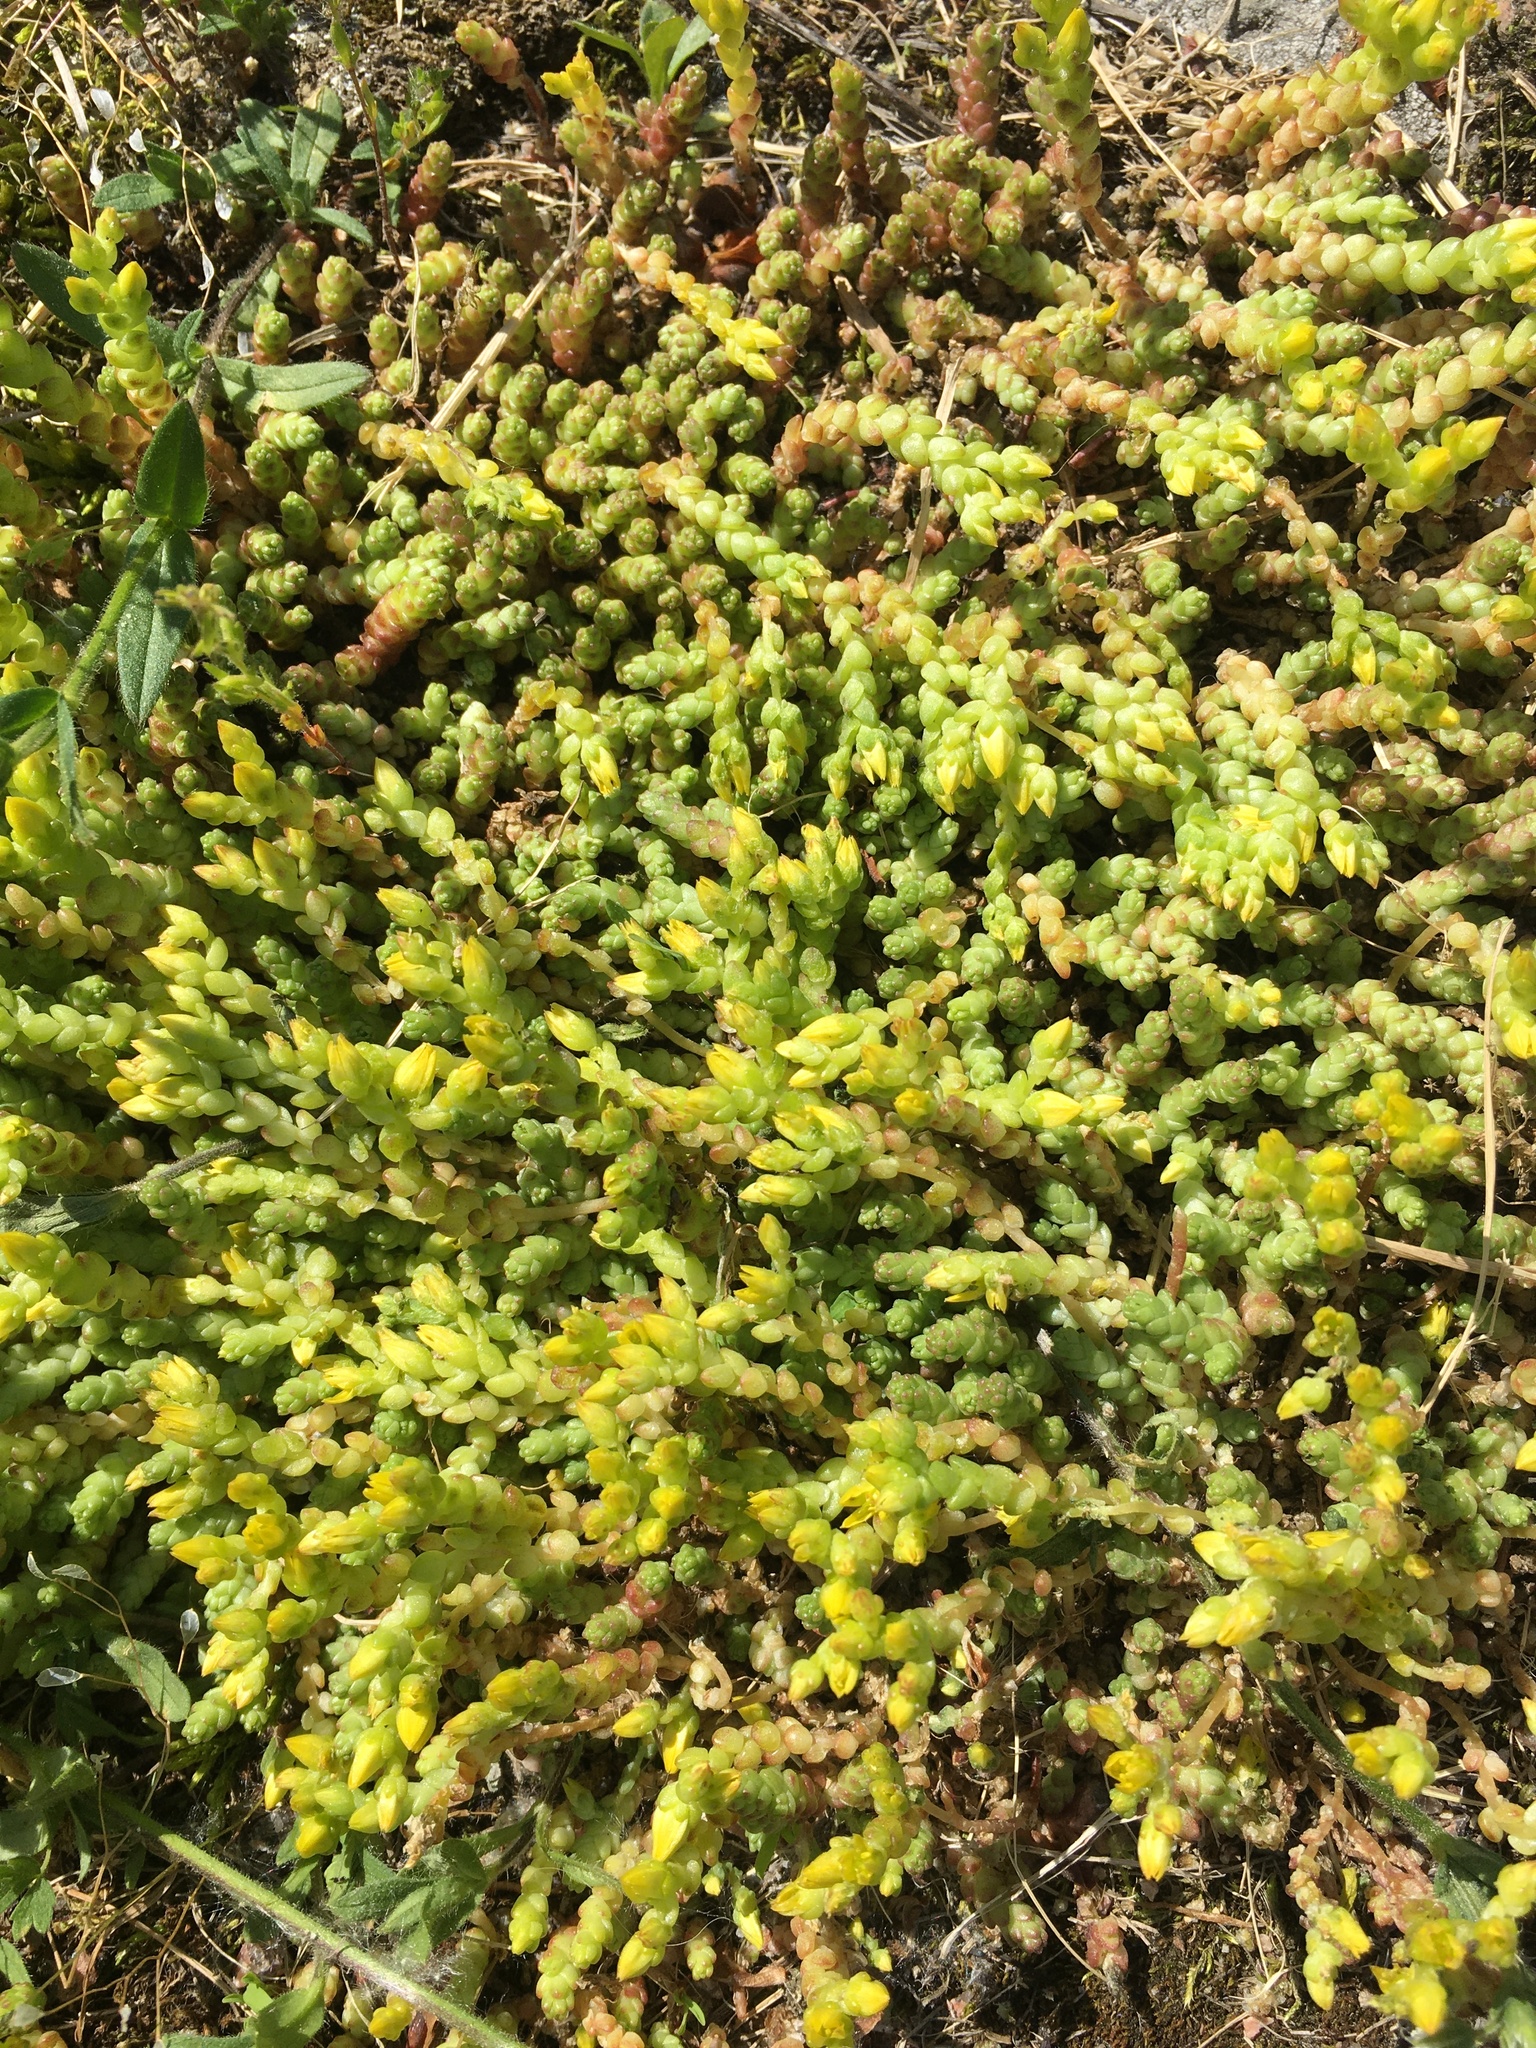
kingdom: Plantae
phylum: Tracheophyta
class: Magnoliopsida
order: Saxifragales
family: Crassulaceae
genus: Sedum
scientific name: Sedum acre
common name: Biting stonecrop
